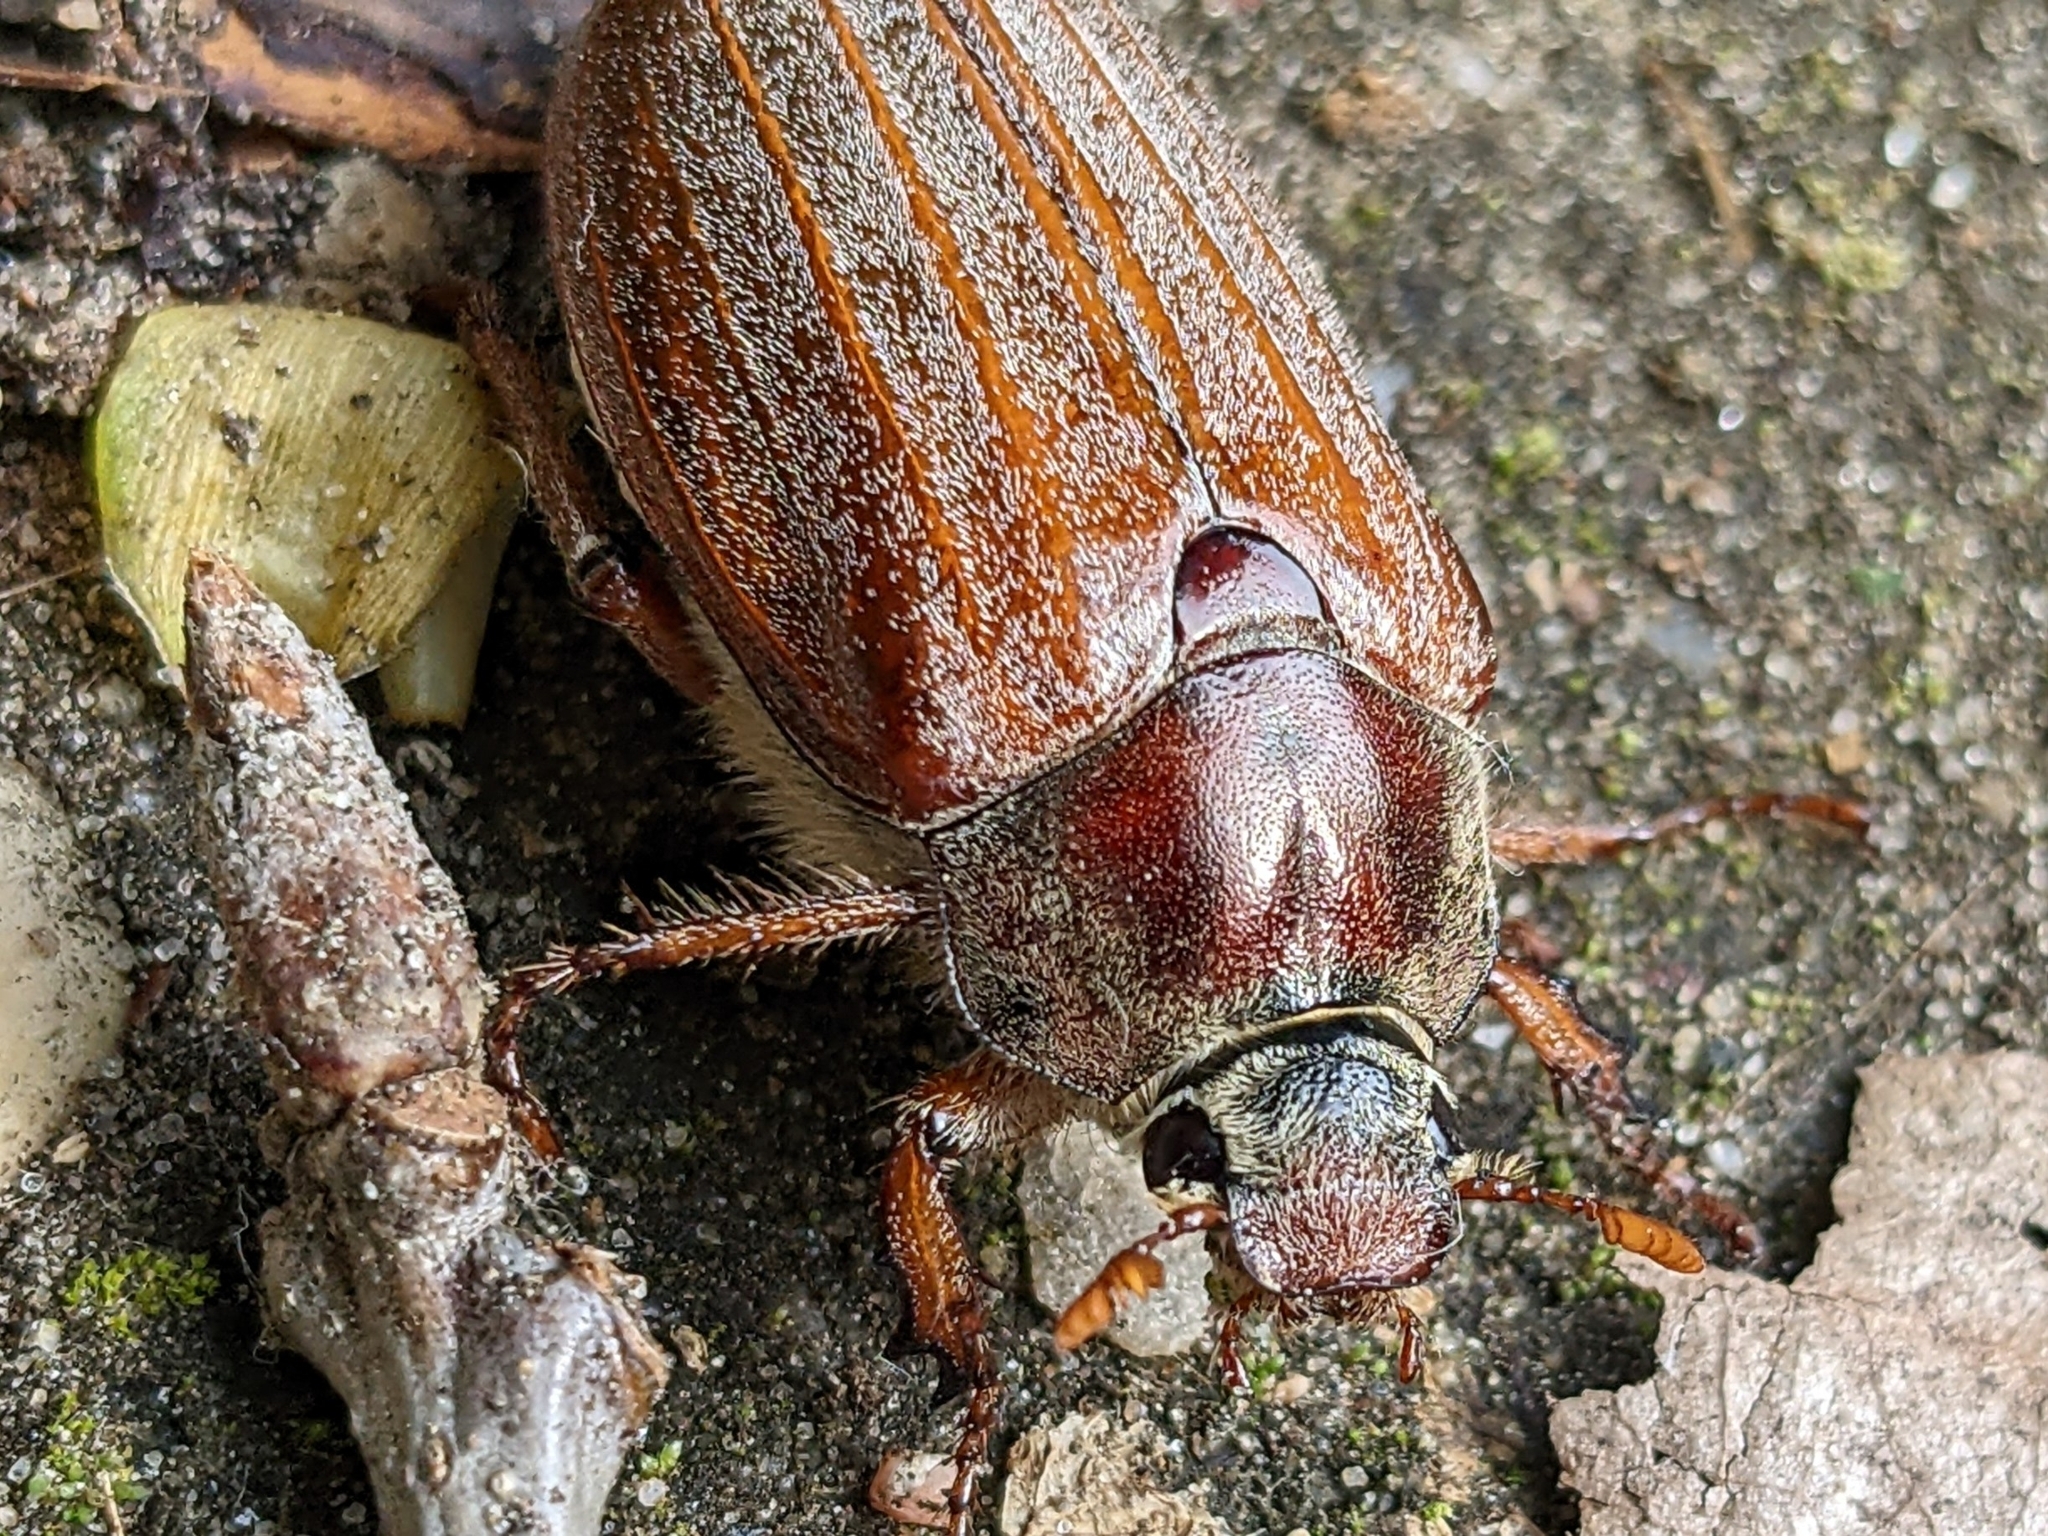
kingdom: Animalia
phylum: Arthropoda
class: Insecta
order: Coleoptera
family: Scarabaeidae
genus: Melolontha
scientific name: Melolontha melolontha
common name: Cockchafer maybeetle
